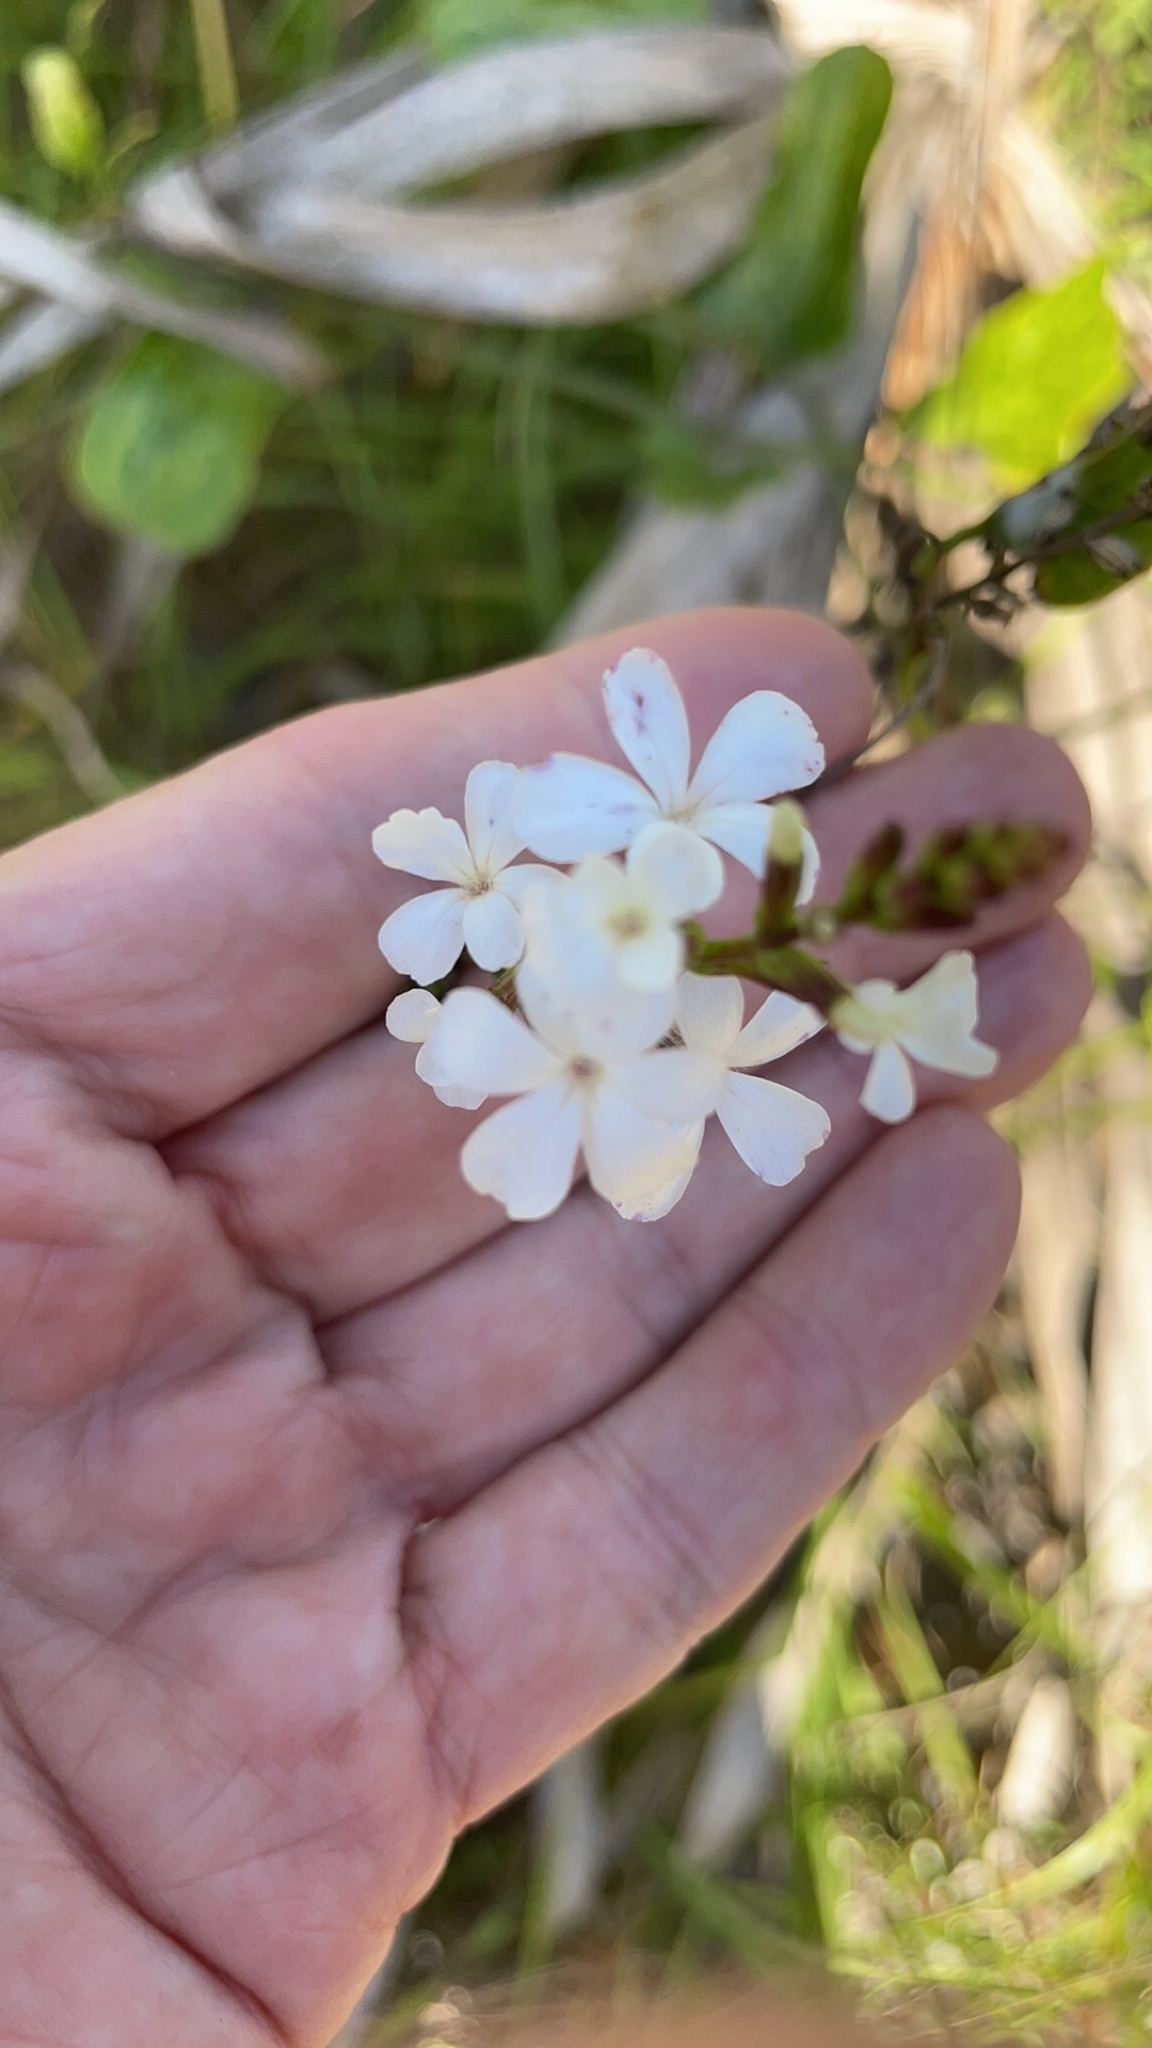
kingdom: Plantae
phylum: Tracheophyta
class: Magnoliopsida
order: Lamiales
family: Orobanchaceae
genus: Buchnera
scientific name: Buchnera floridana
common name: Florida bluehearts
